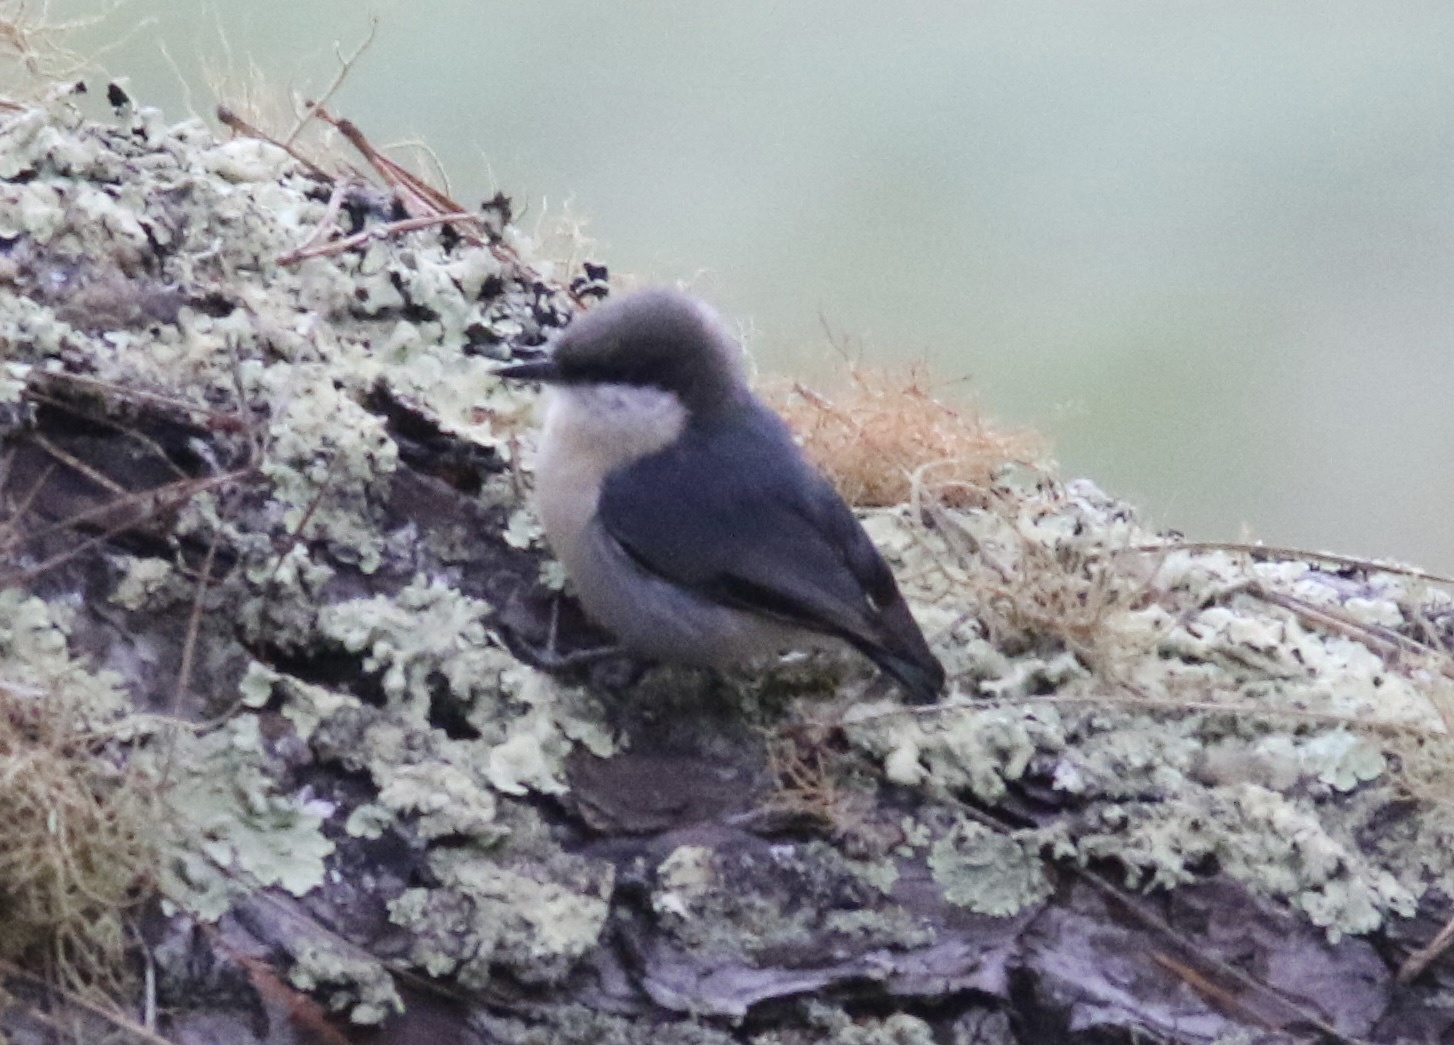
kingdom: Animalia
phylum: Chordata
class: Aves
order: Passeriformes
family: Sittidae
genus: Sitta
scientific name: Sitta pygmaea
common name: Pygmy nuthatch
